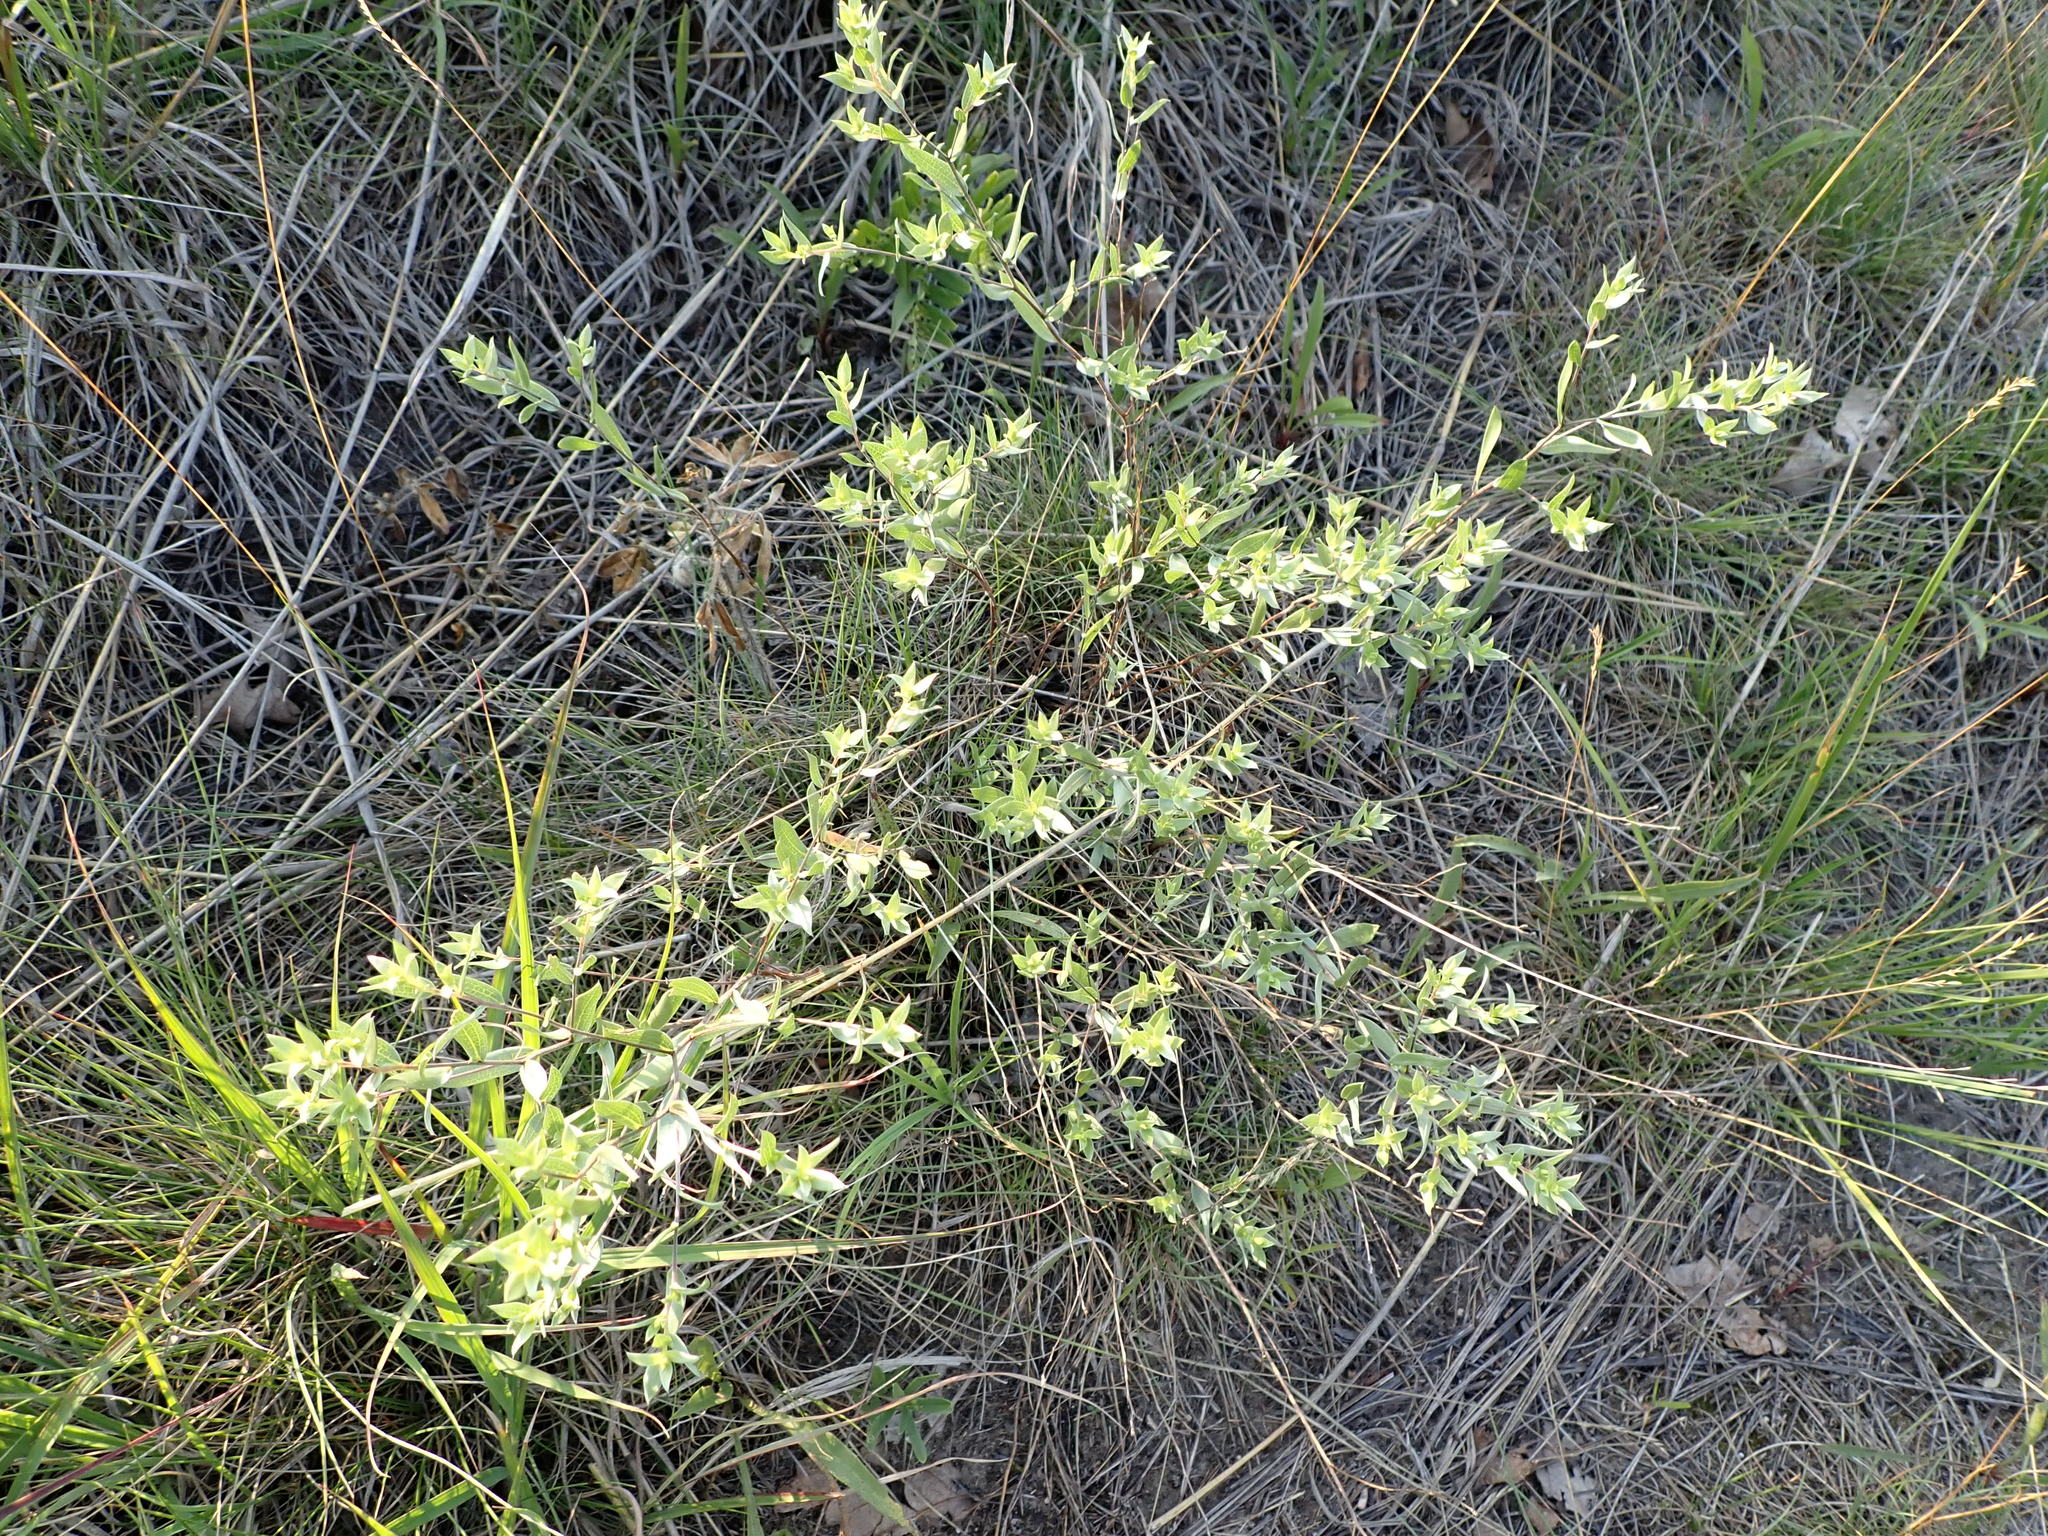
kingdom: Plantae
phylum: Tracheophyta
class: Magnoliopsida
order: Asterales
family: Asteraceae
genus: Symphyotrichum
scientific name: Symphyotrichum sericeum
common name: Silky aster
